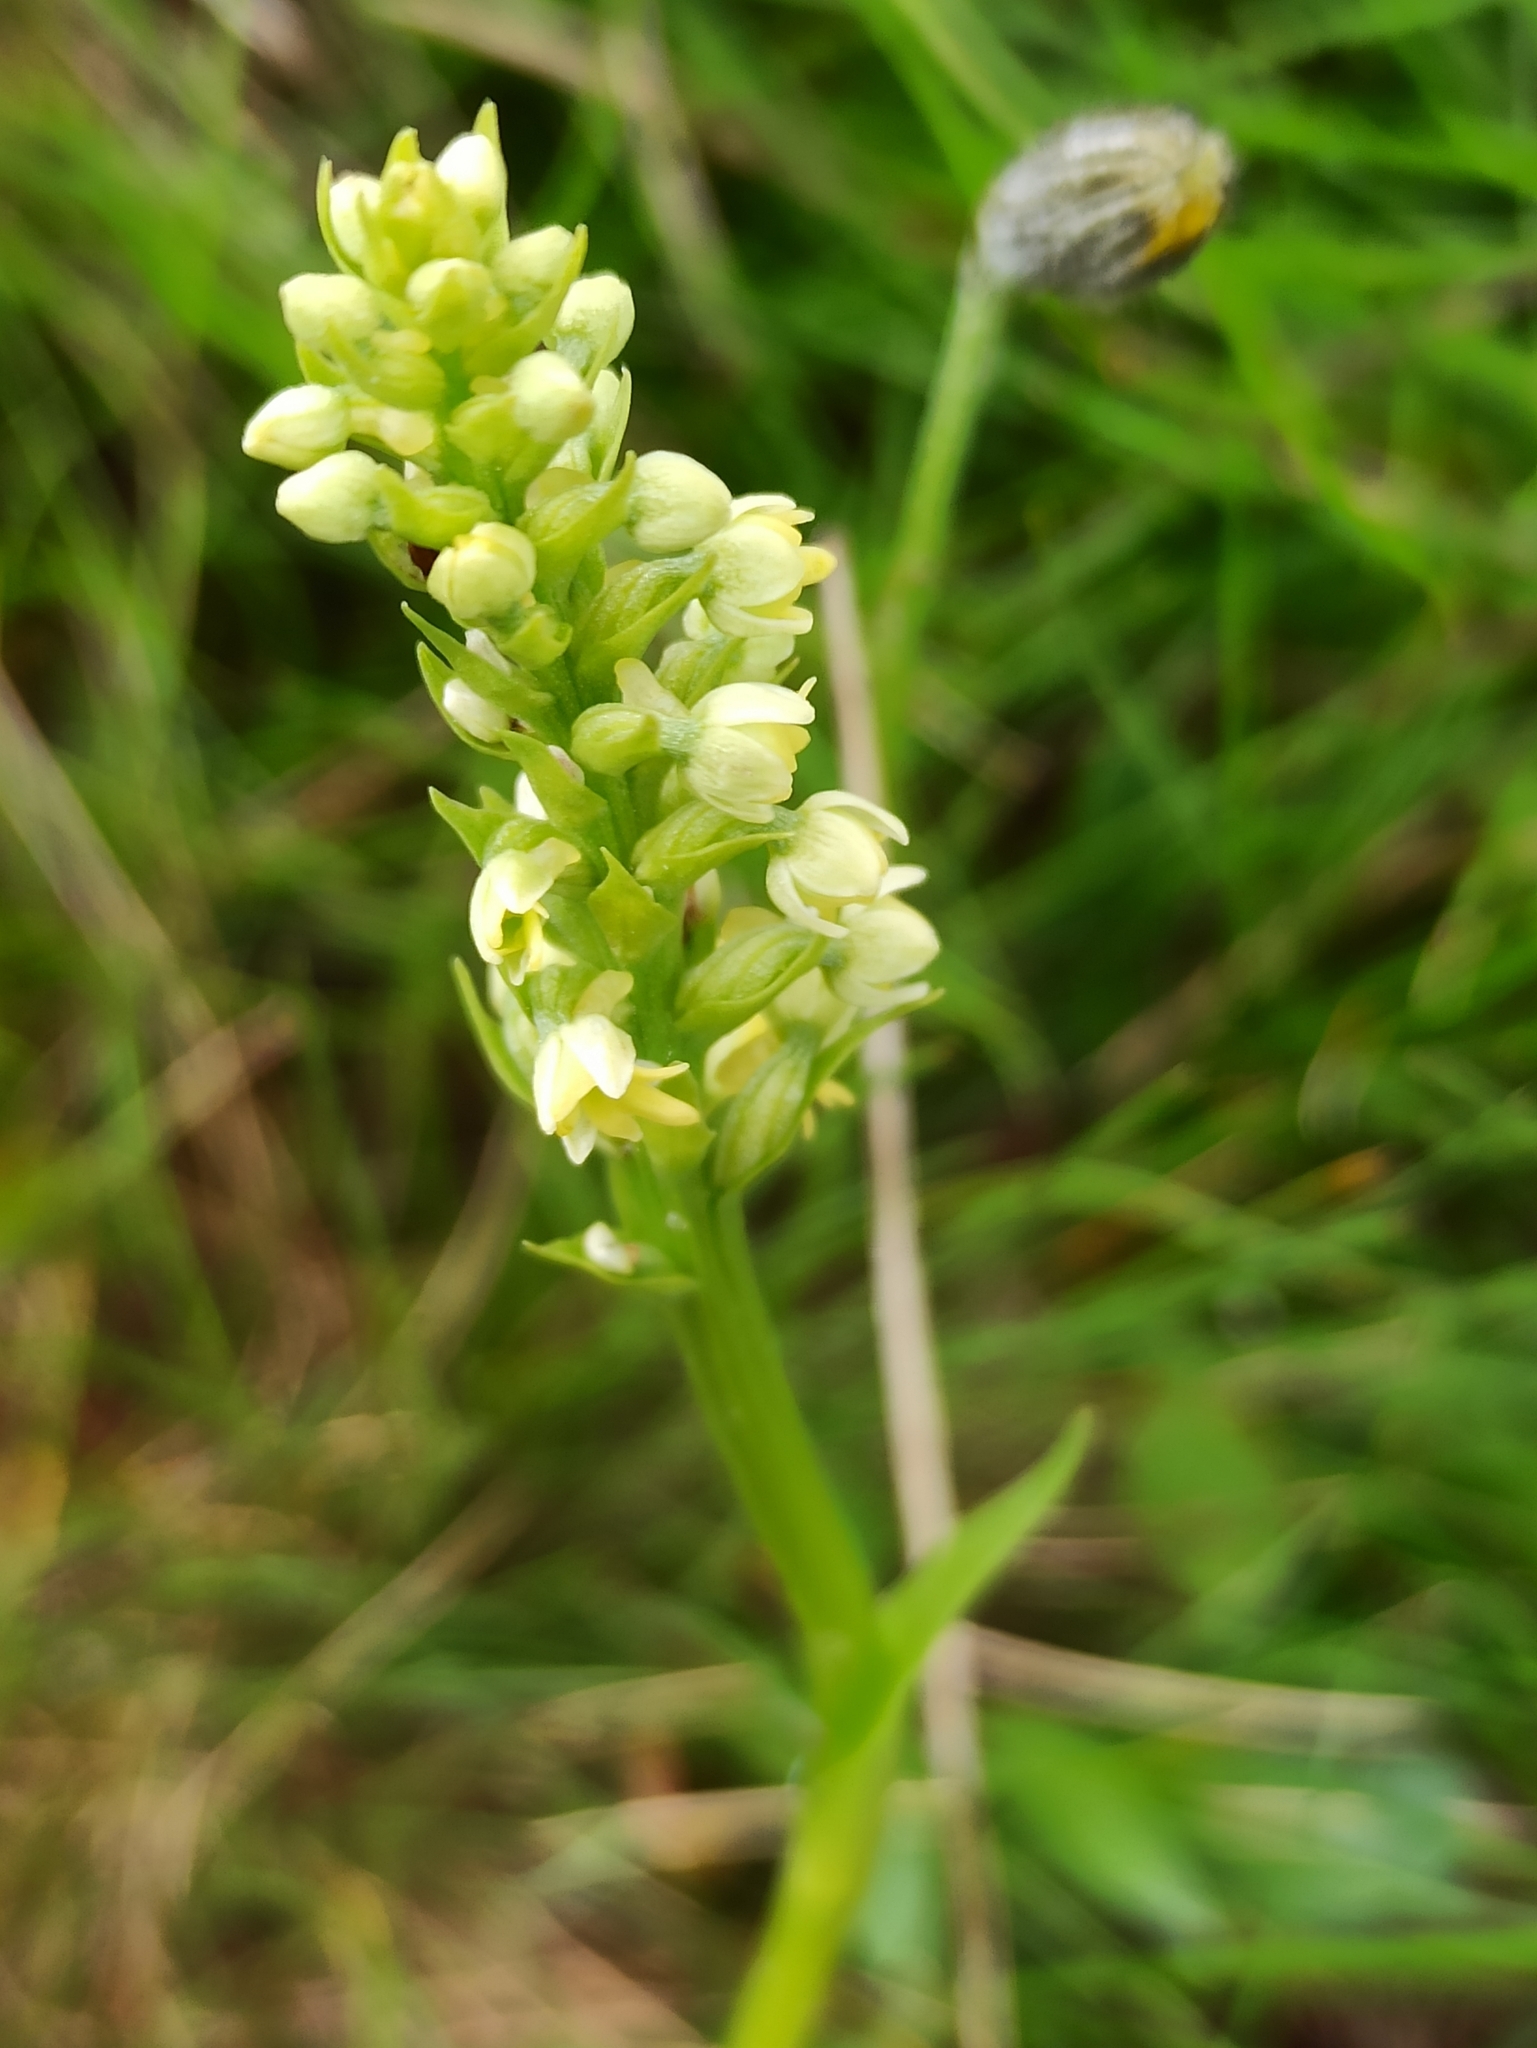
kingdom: Plantae
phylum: Tracheophyta
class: Liliopsida
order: Asparagales
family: Orchidaceae
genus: Pseudorchis
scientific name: Pseudorchis albida
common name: Small-white orchid
